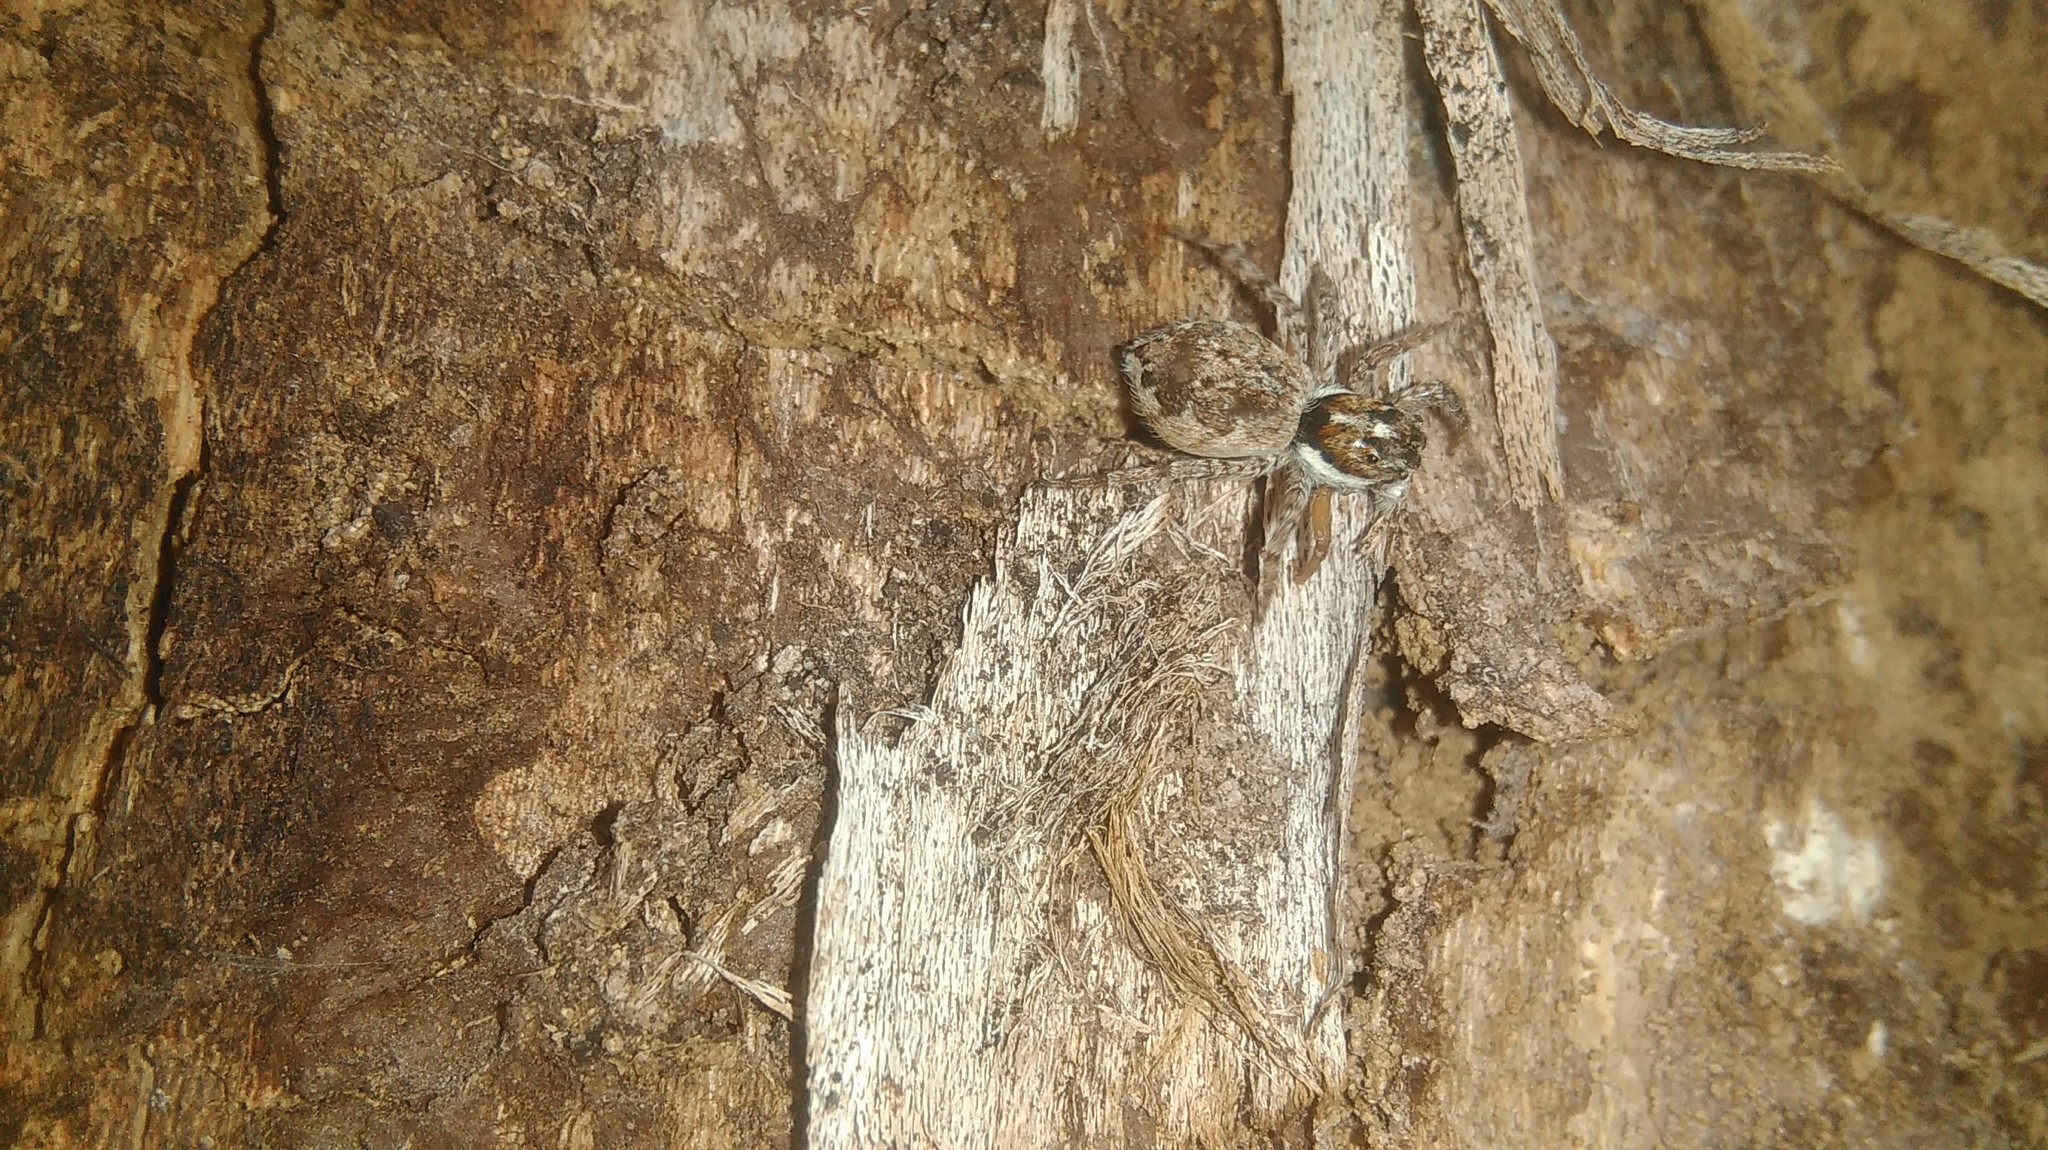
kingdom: Animalia
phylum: Arthropoda
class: Arachnida
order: Araneae
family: Salticidae
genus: Menemerus
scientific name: Menemerus semilimbatus
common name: Jumping spider
